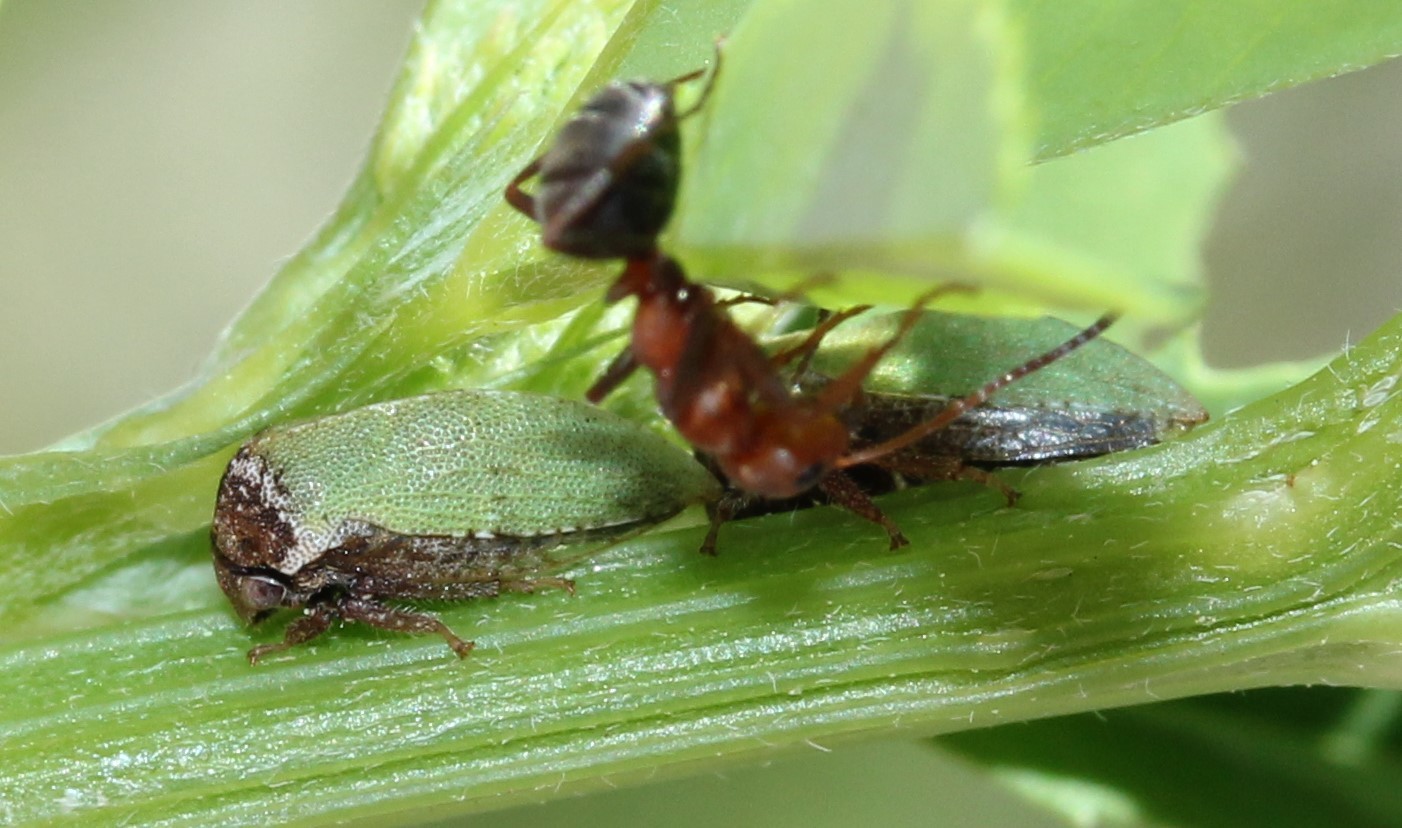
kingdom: Animalia
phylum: Arthropoda
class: Insecta
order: Hemiptera
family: Membracidae
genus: Publilia
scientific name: Publilia modesta
